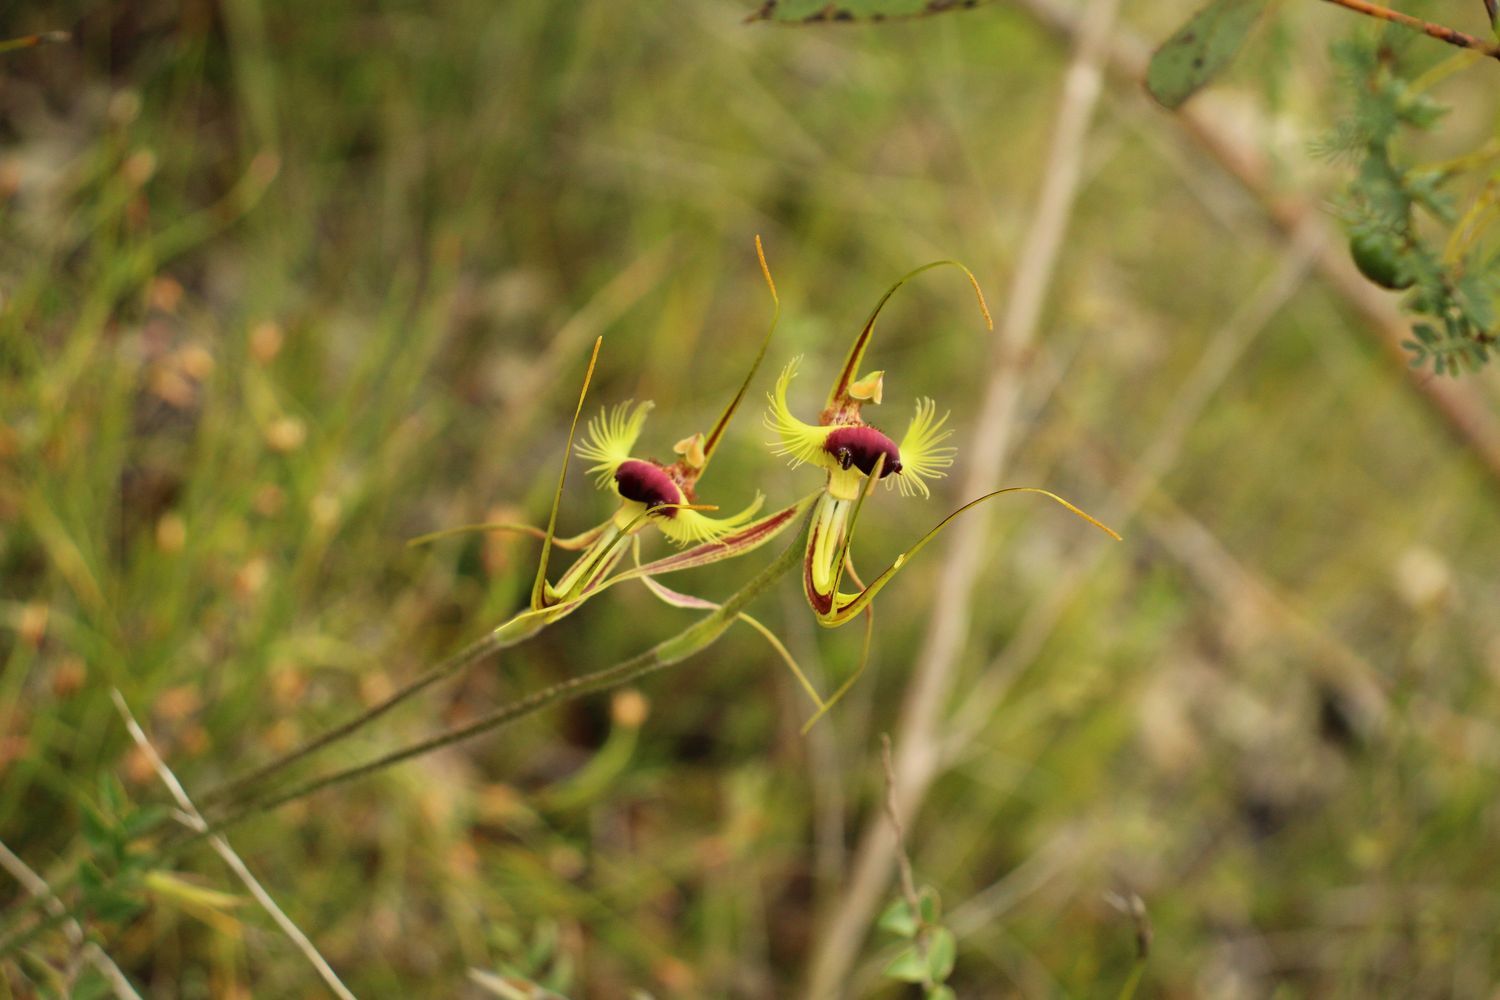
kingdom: Plantae
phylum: Tracheophyta
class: Liliopsida
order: Asparagales
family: Orchidaceae
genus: Caladenia
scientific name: Caladenia lobata
